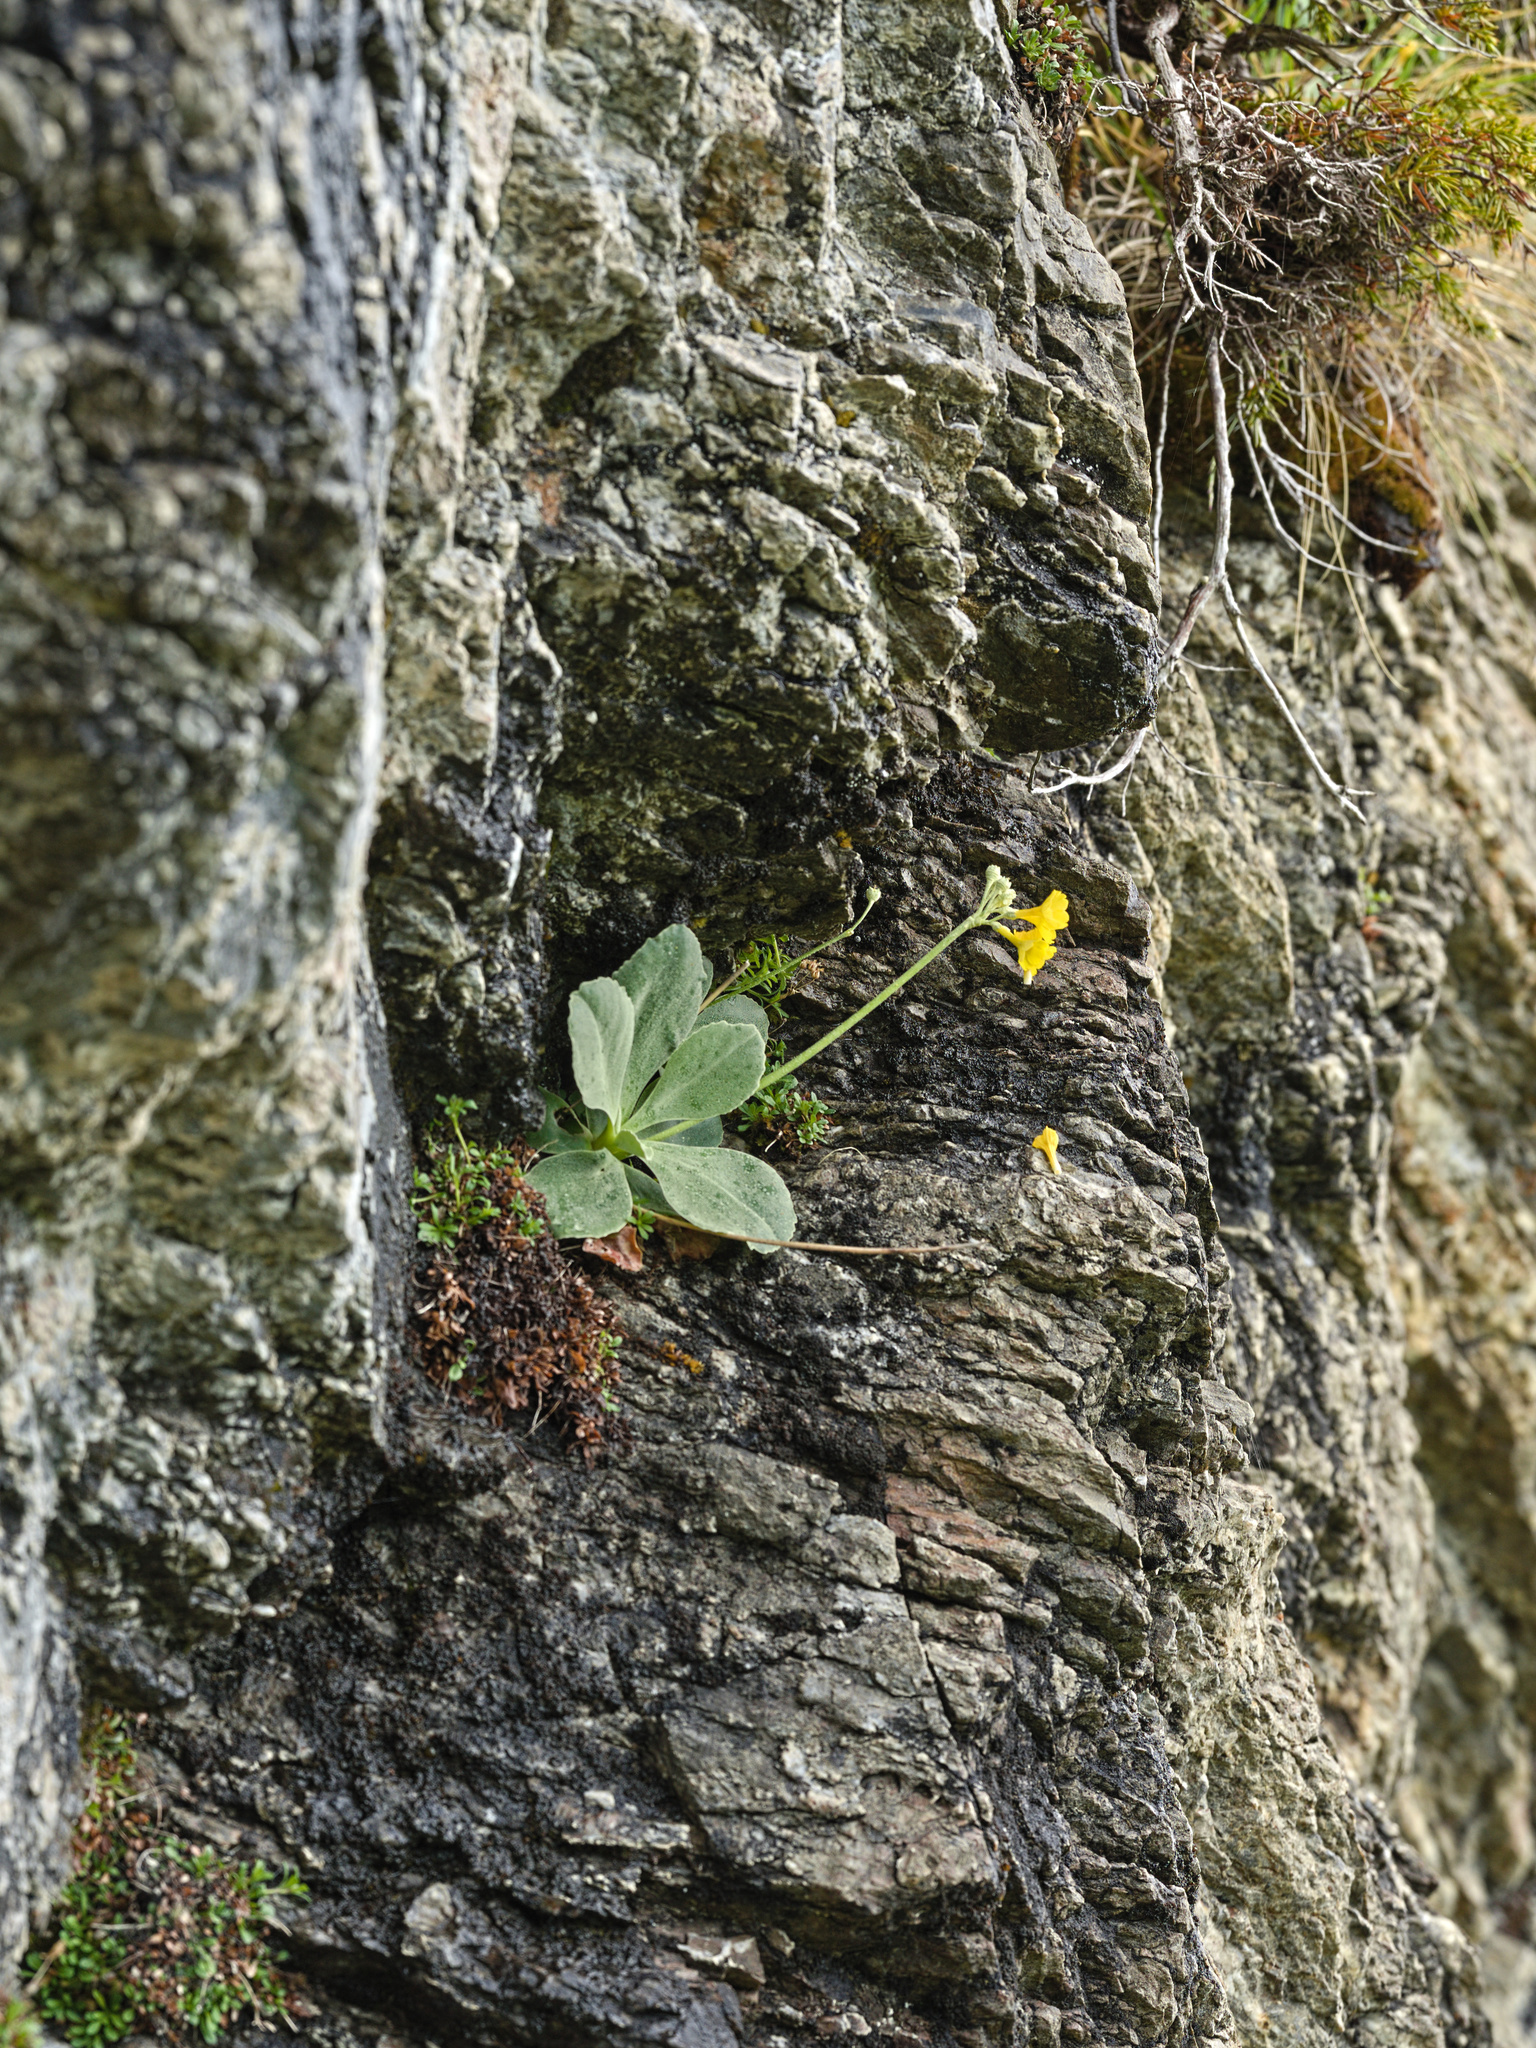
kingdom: Plantae
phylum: Tracheophyta
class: Magnoliopsida
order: Ericales
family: Primulaceae
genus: Primula
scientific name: Primula auricula
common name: Auricula
